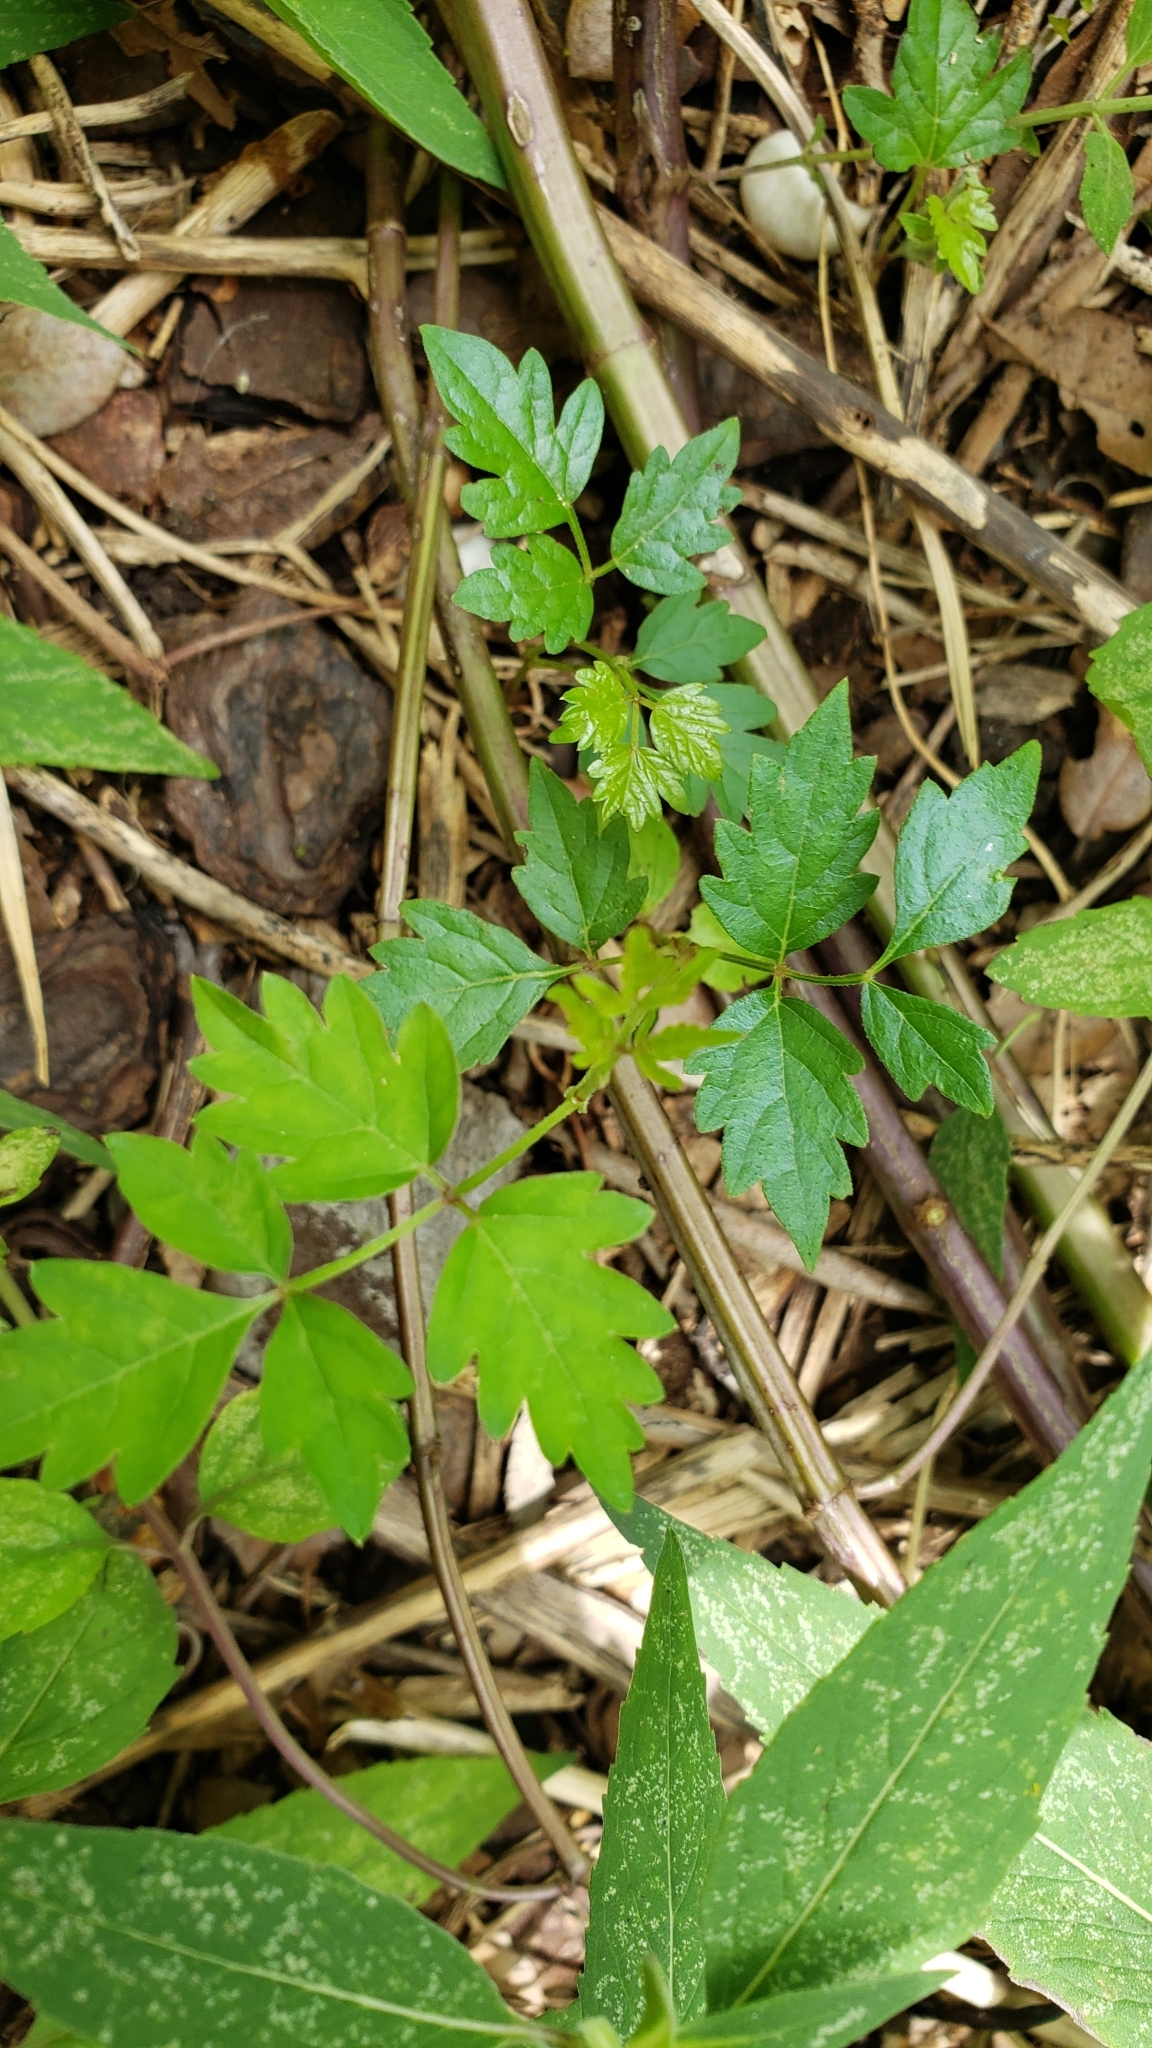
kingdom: Plantae
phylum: Tracheophyta
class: Magnoliopsida
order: Vitales
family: Vitaceae
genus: Nekemias
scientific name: Nekemias arborea
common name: Peppervine
